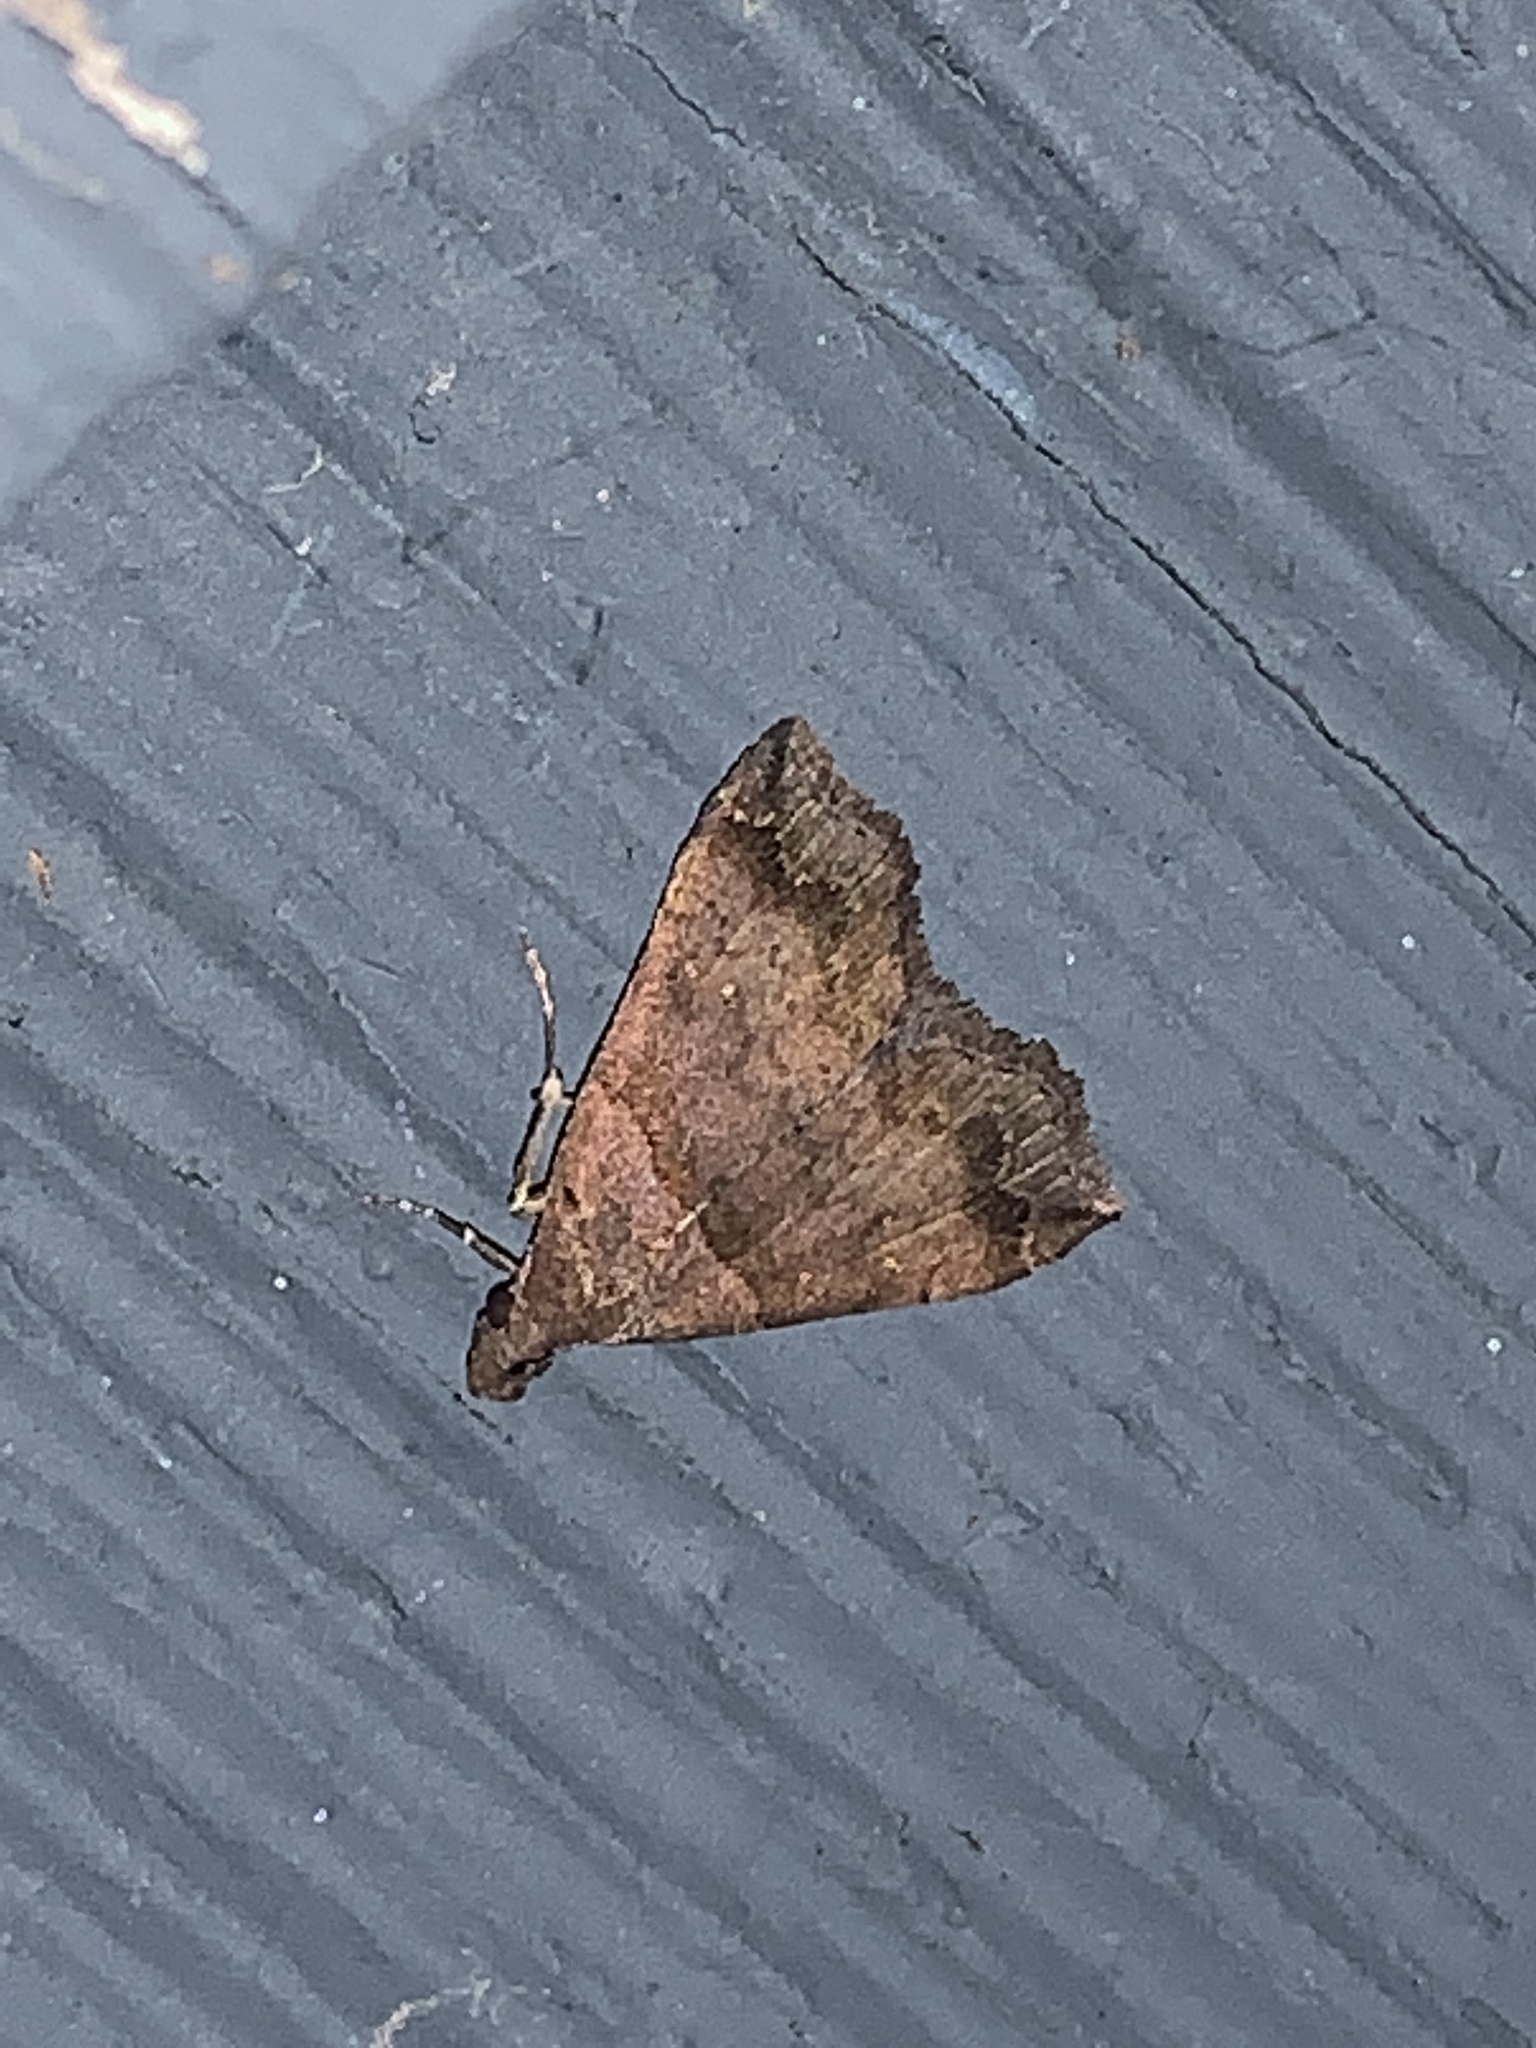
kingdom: Animalia
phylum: Arthropoda
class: Insecta
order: Lepidoptera
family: Erebidae
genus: Lascoria
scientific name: Lascoria ambigualis
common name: Ambiguous moth
